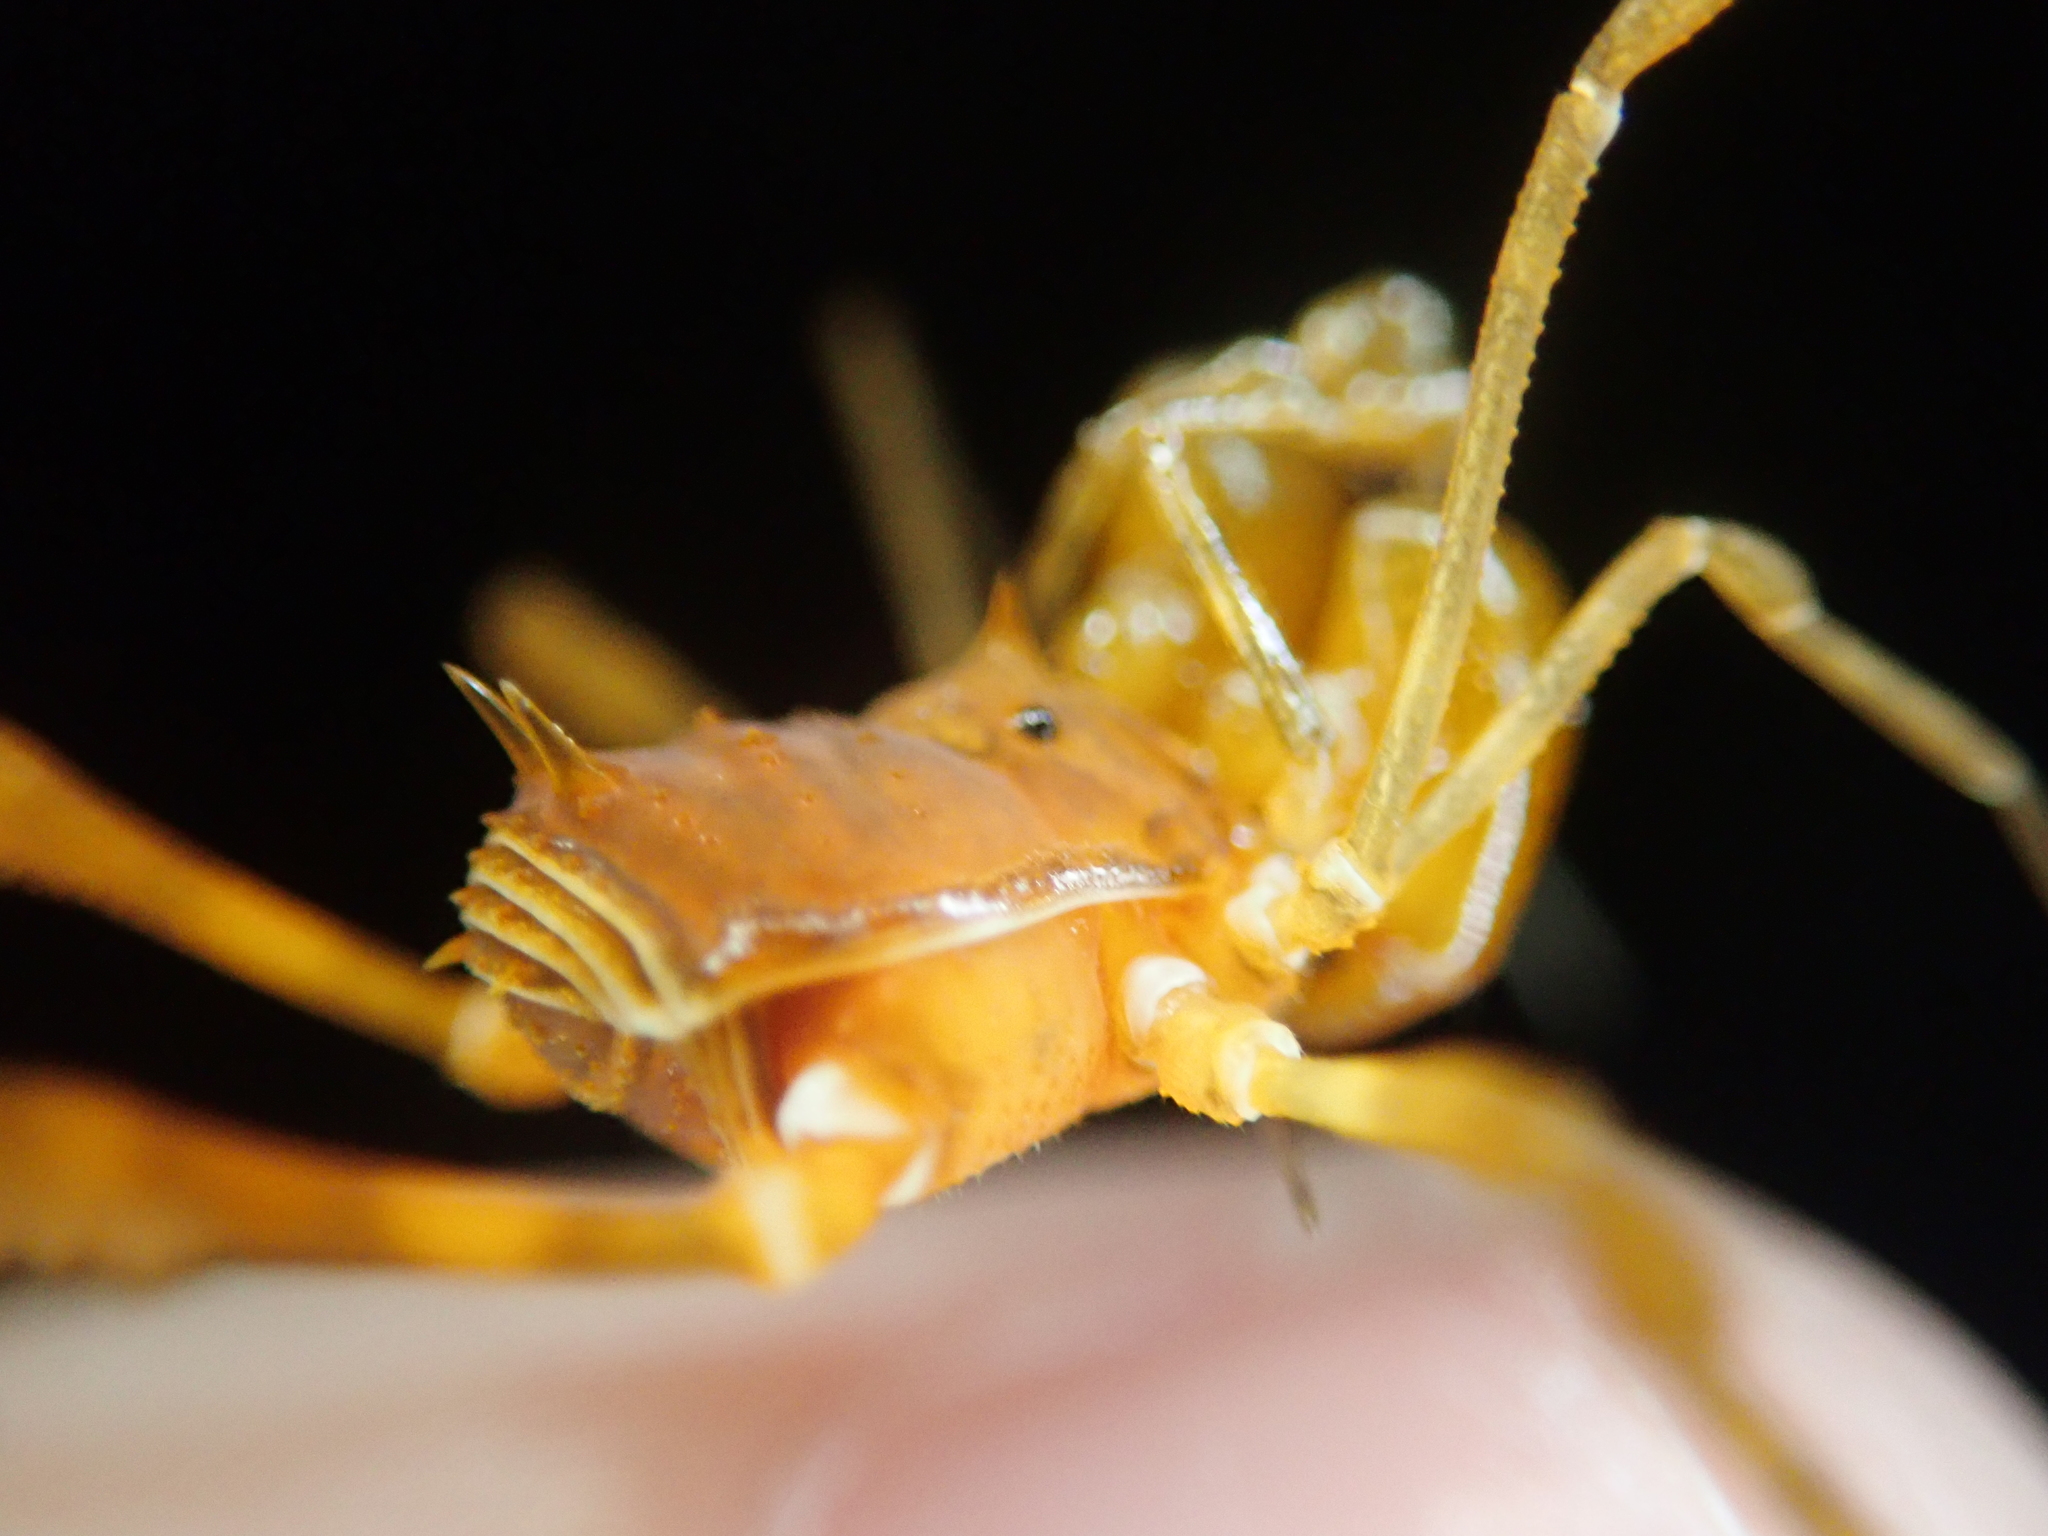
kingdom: Animalia
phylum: Arthropoda
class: Arachnida
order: Opiliones
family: Stygnidae
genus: Stygnus
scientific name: Stygnus polyacanthus
